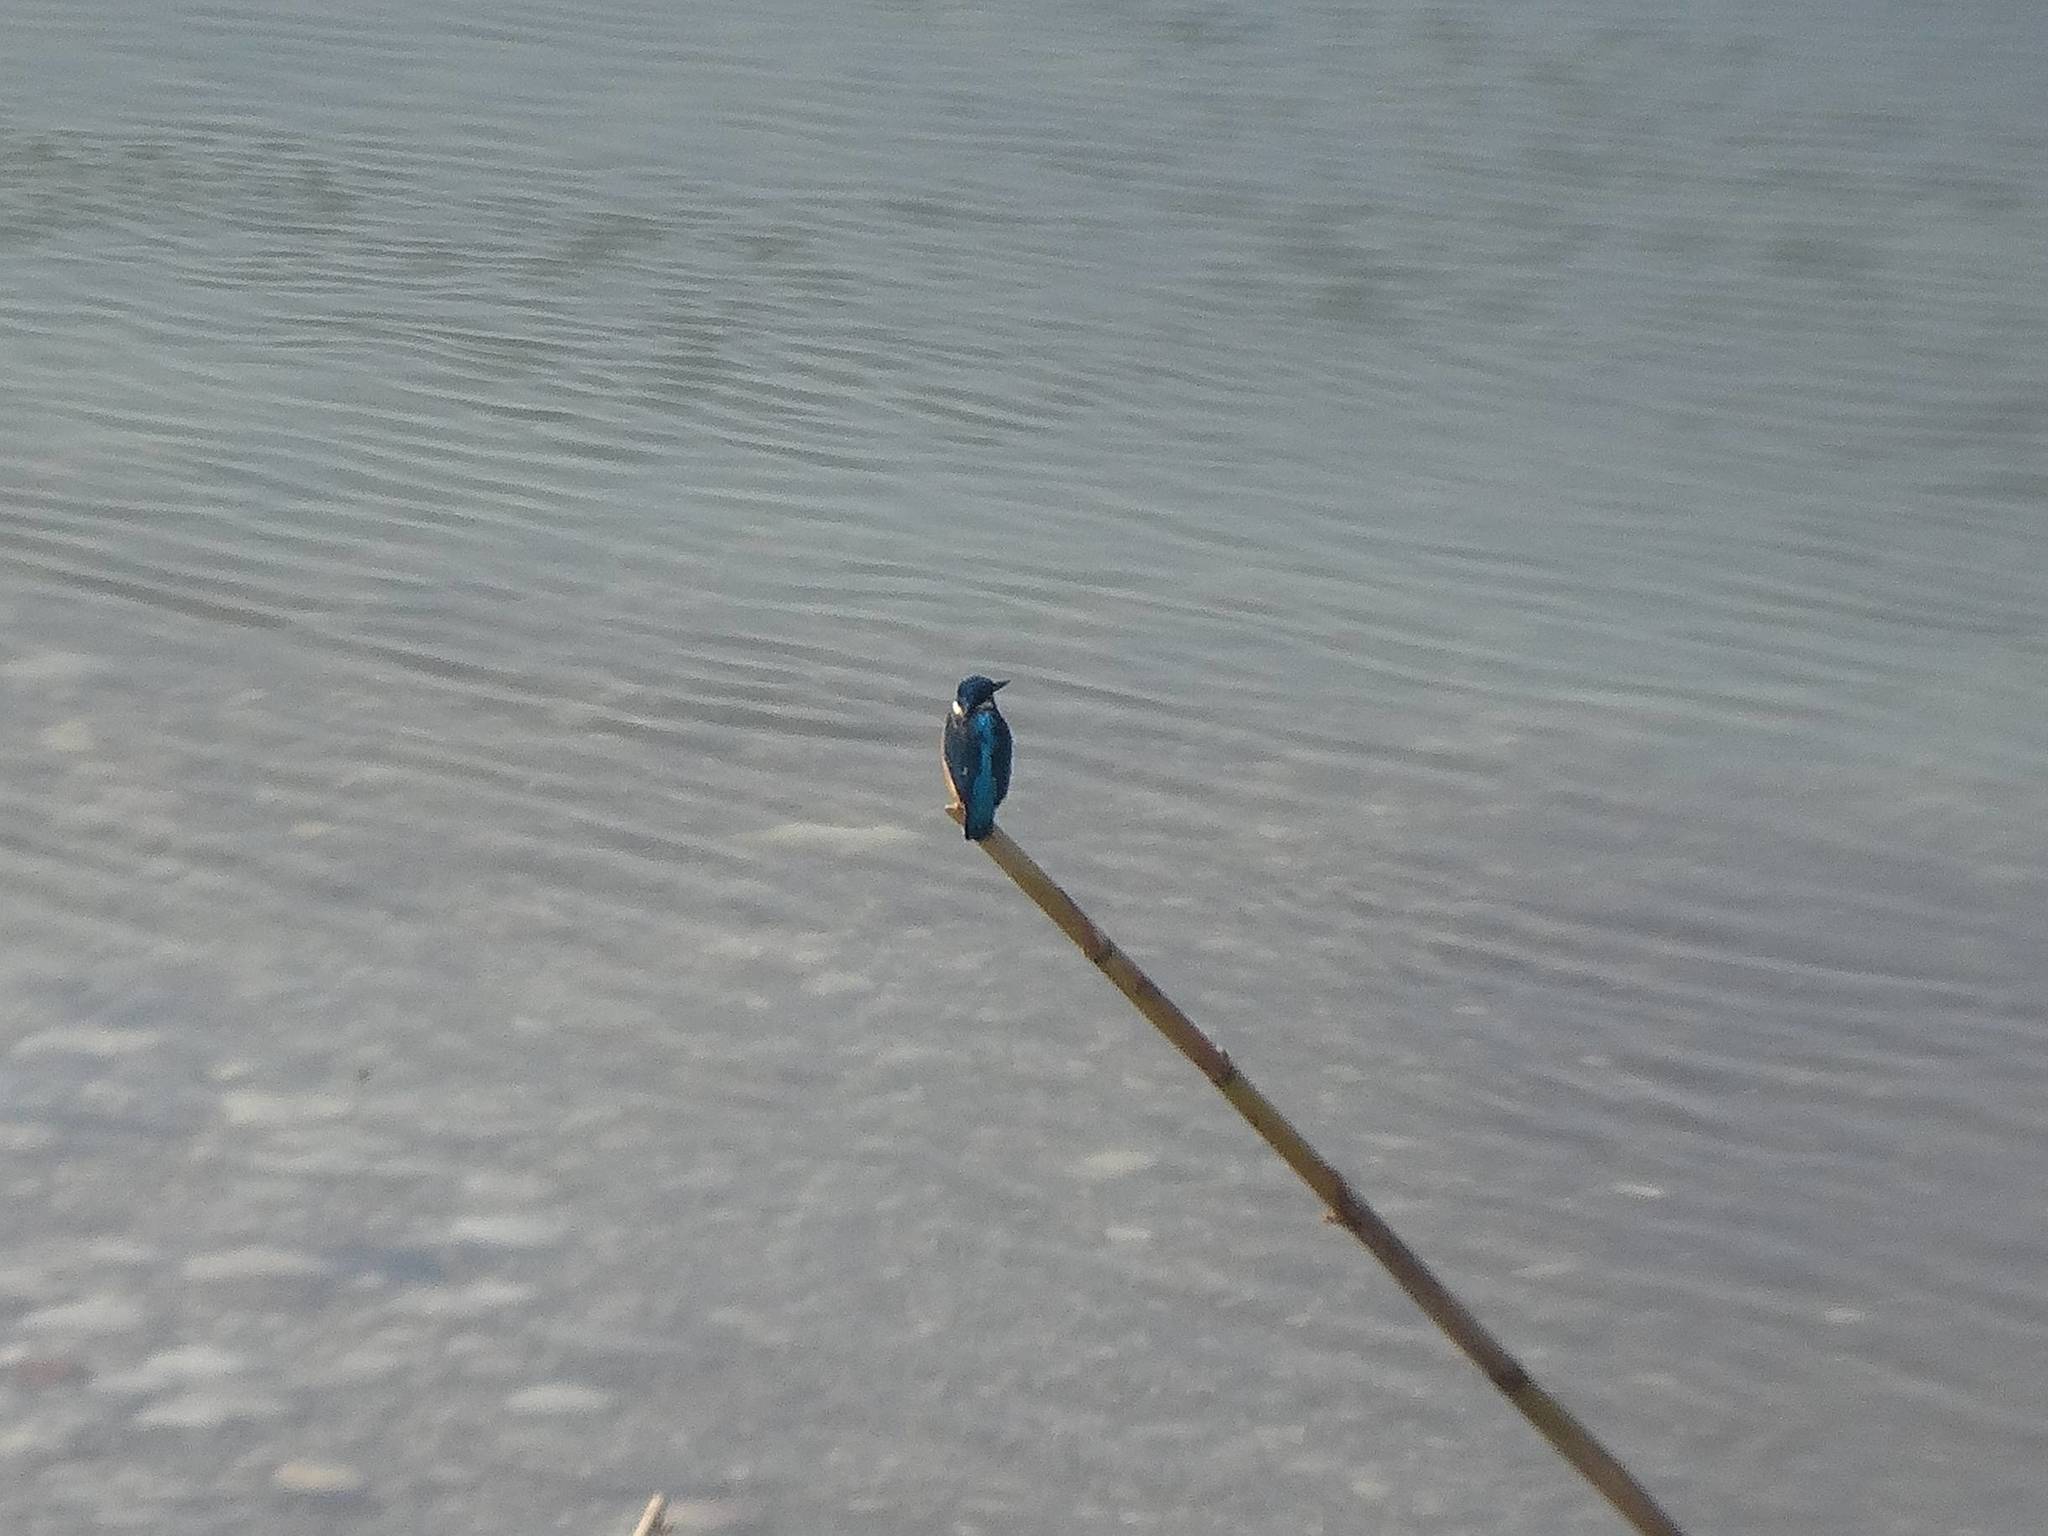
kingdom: Animalia
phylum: Chordata
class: Aves
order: Coraciiformes
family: Alcedinidae
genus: Alcedo
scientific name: Alcedo atthis
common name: Common kingfisher
